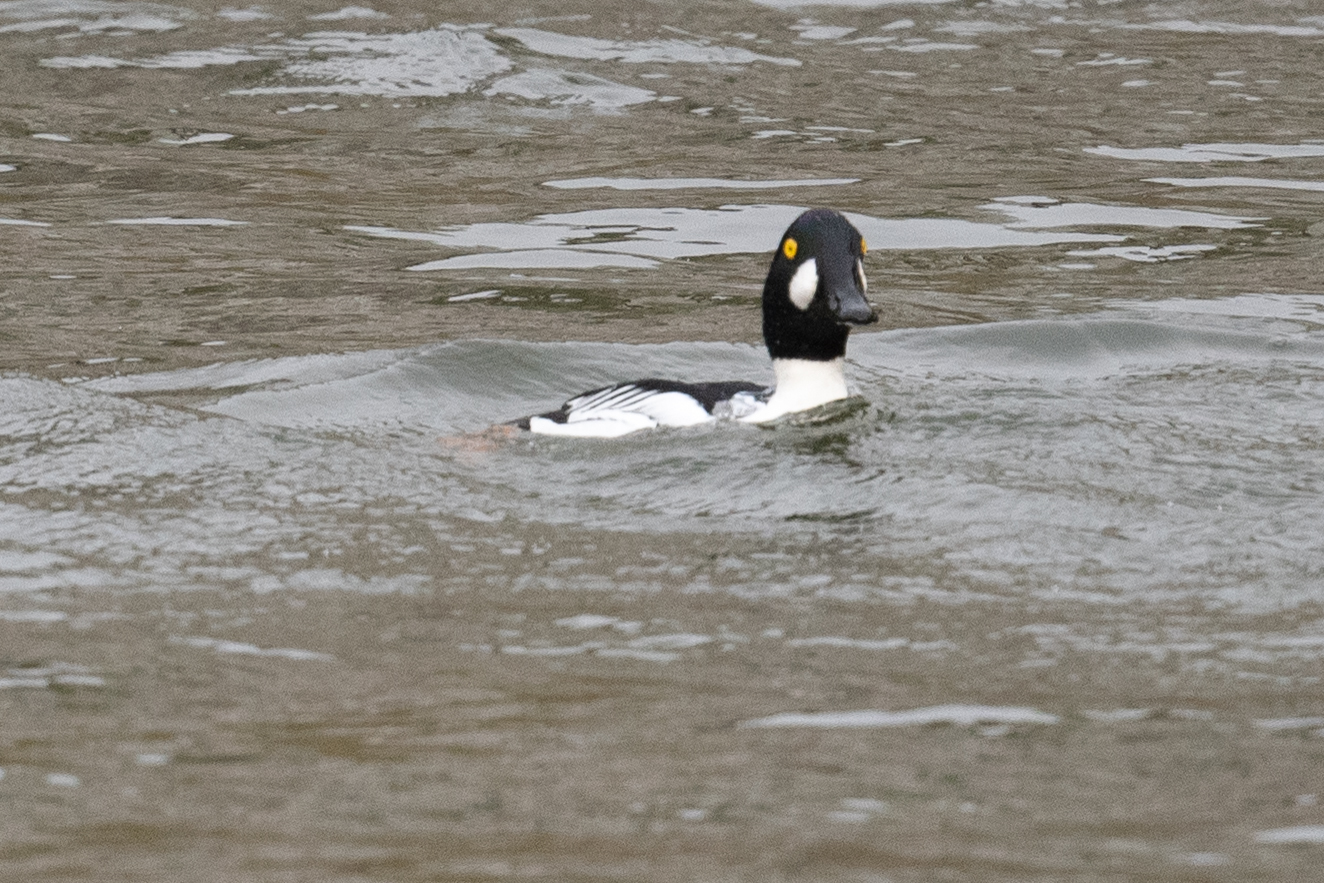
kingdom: Animalia
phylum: Chordata
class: Aves
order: Anseriformes
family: Anatidae
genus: Bucephala
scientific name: Bucephala clangula
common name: Common goldeneye
